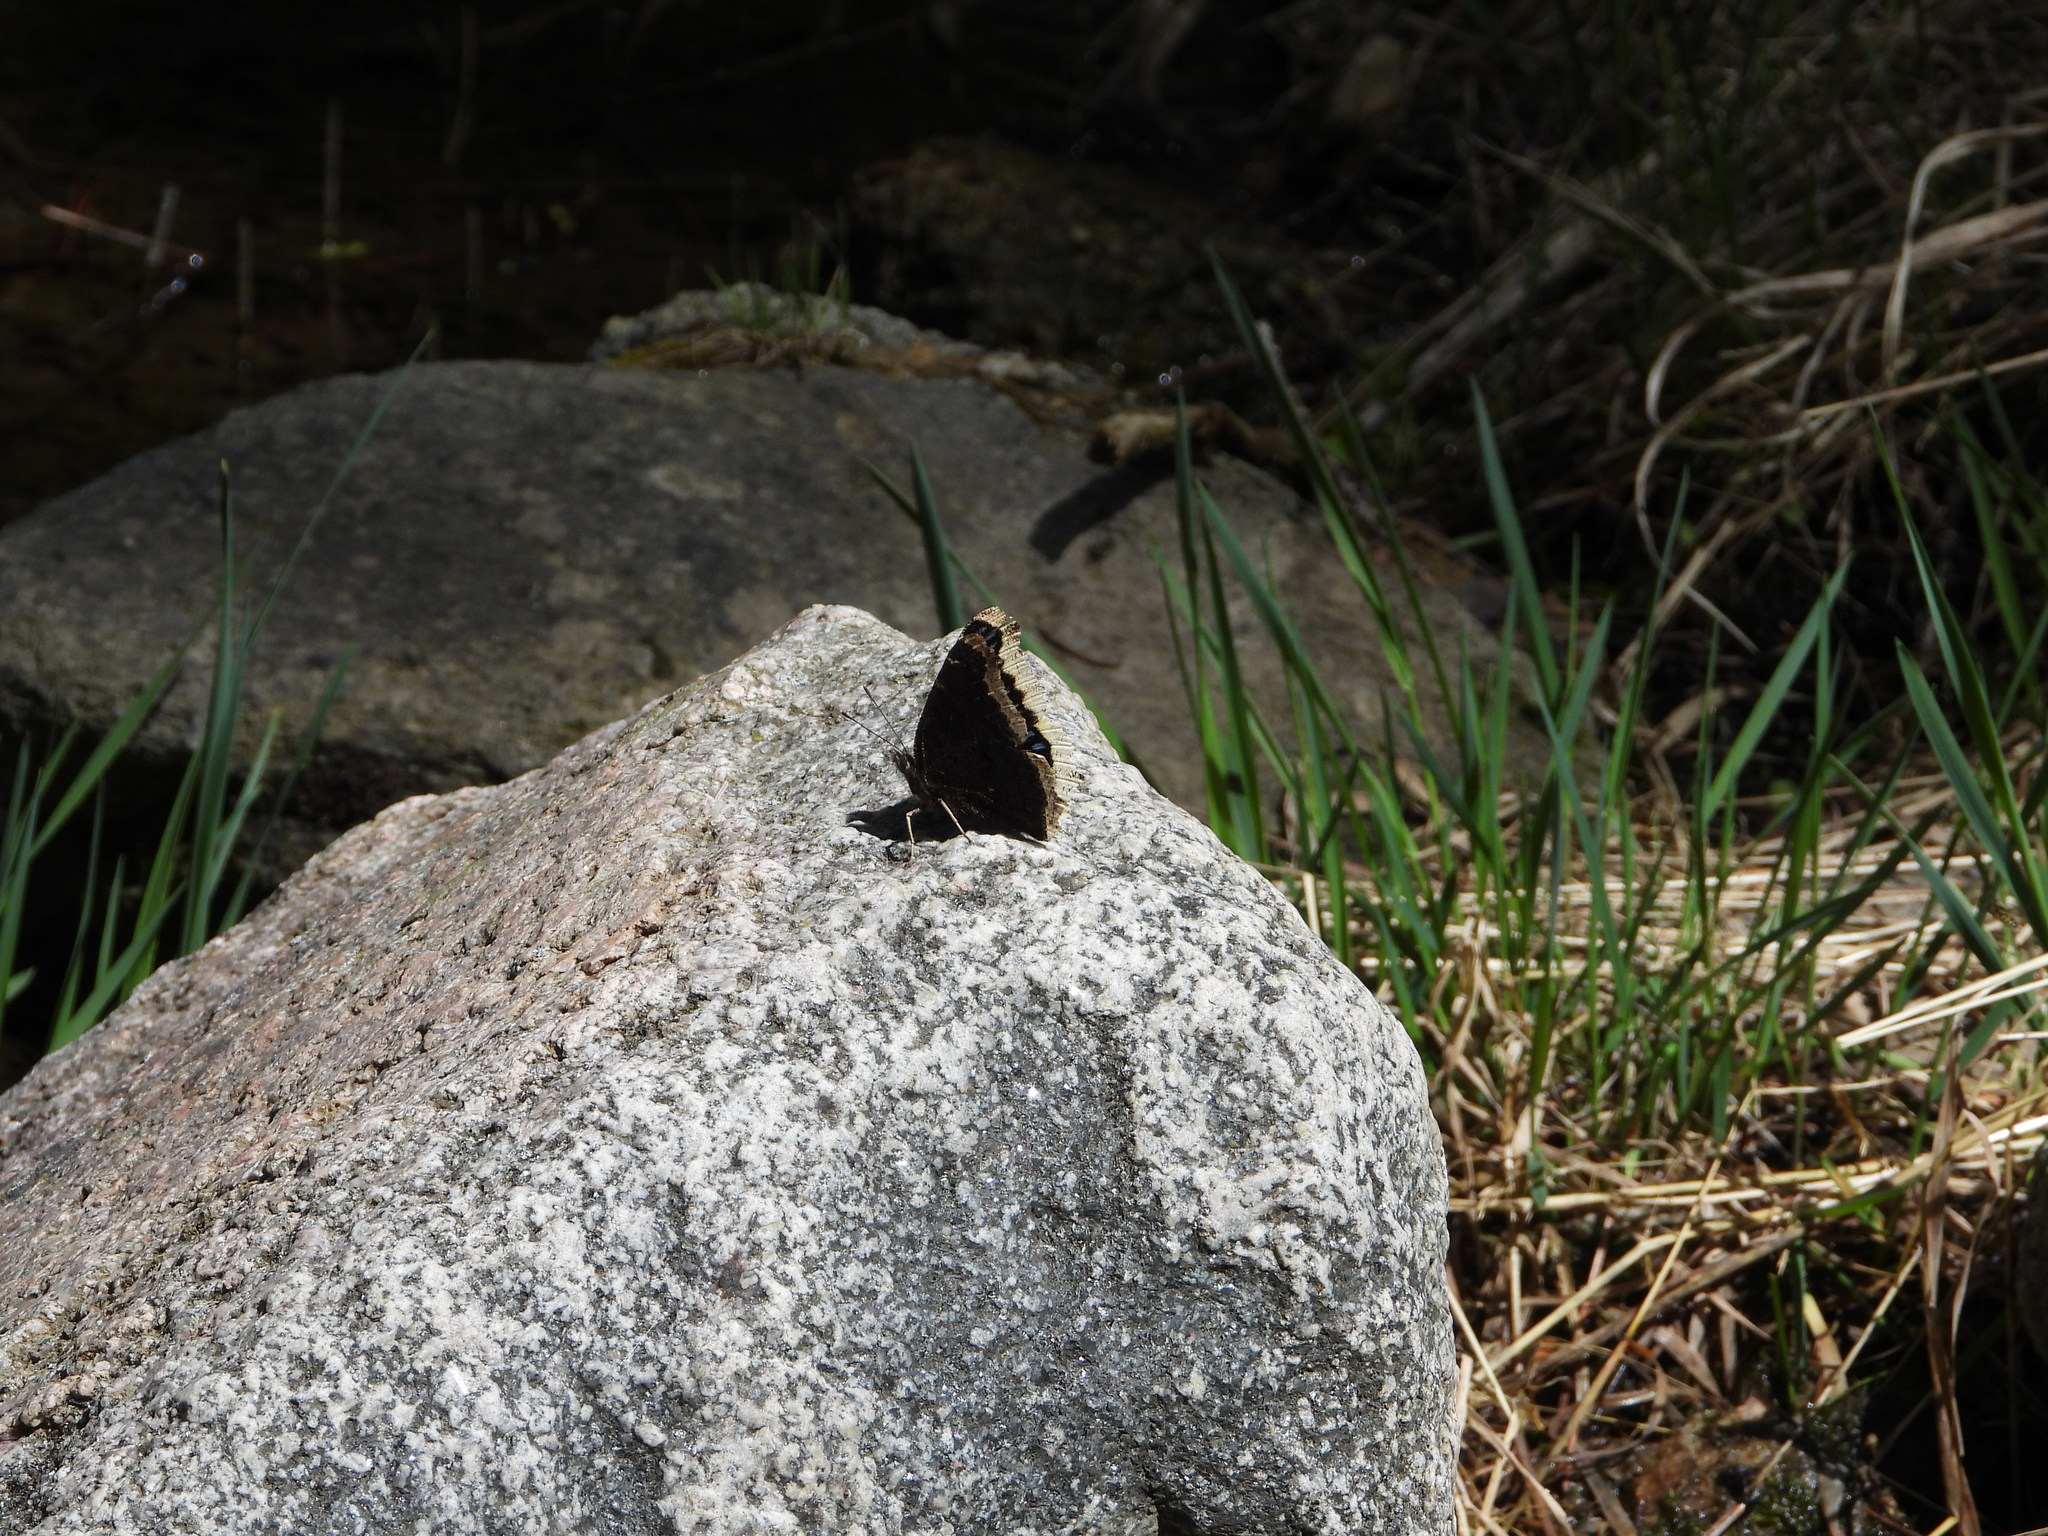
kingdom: Animalia
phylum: Arthropoda
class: Insecta
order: Lepidoptera
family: Nymphalidae
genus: Nymphalis
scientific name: Nymphalis antiopa
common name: Camberwell beauty
